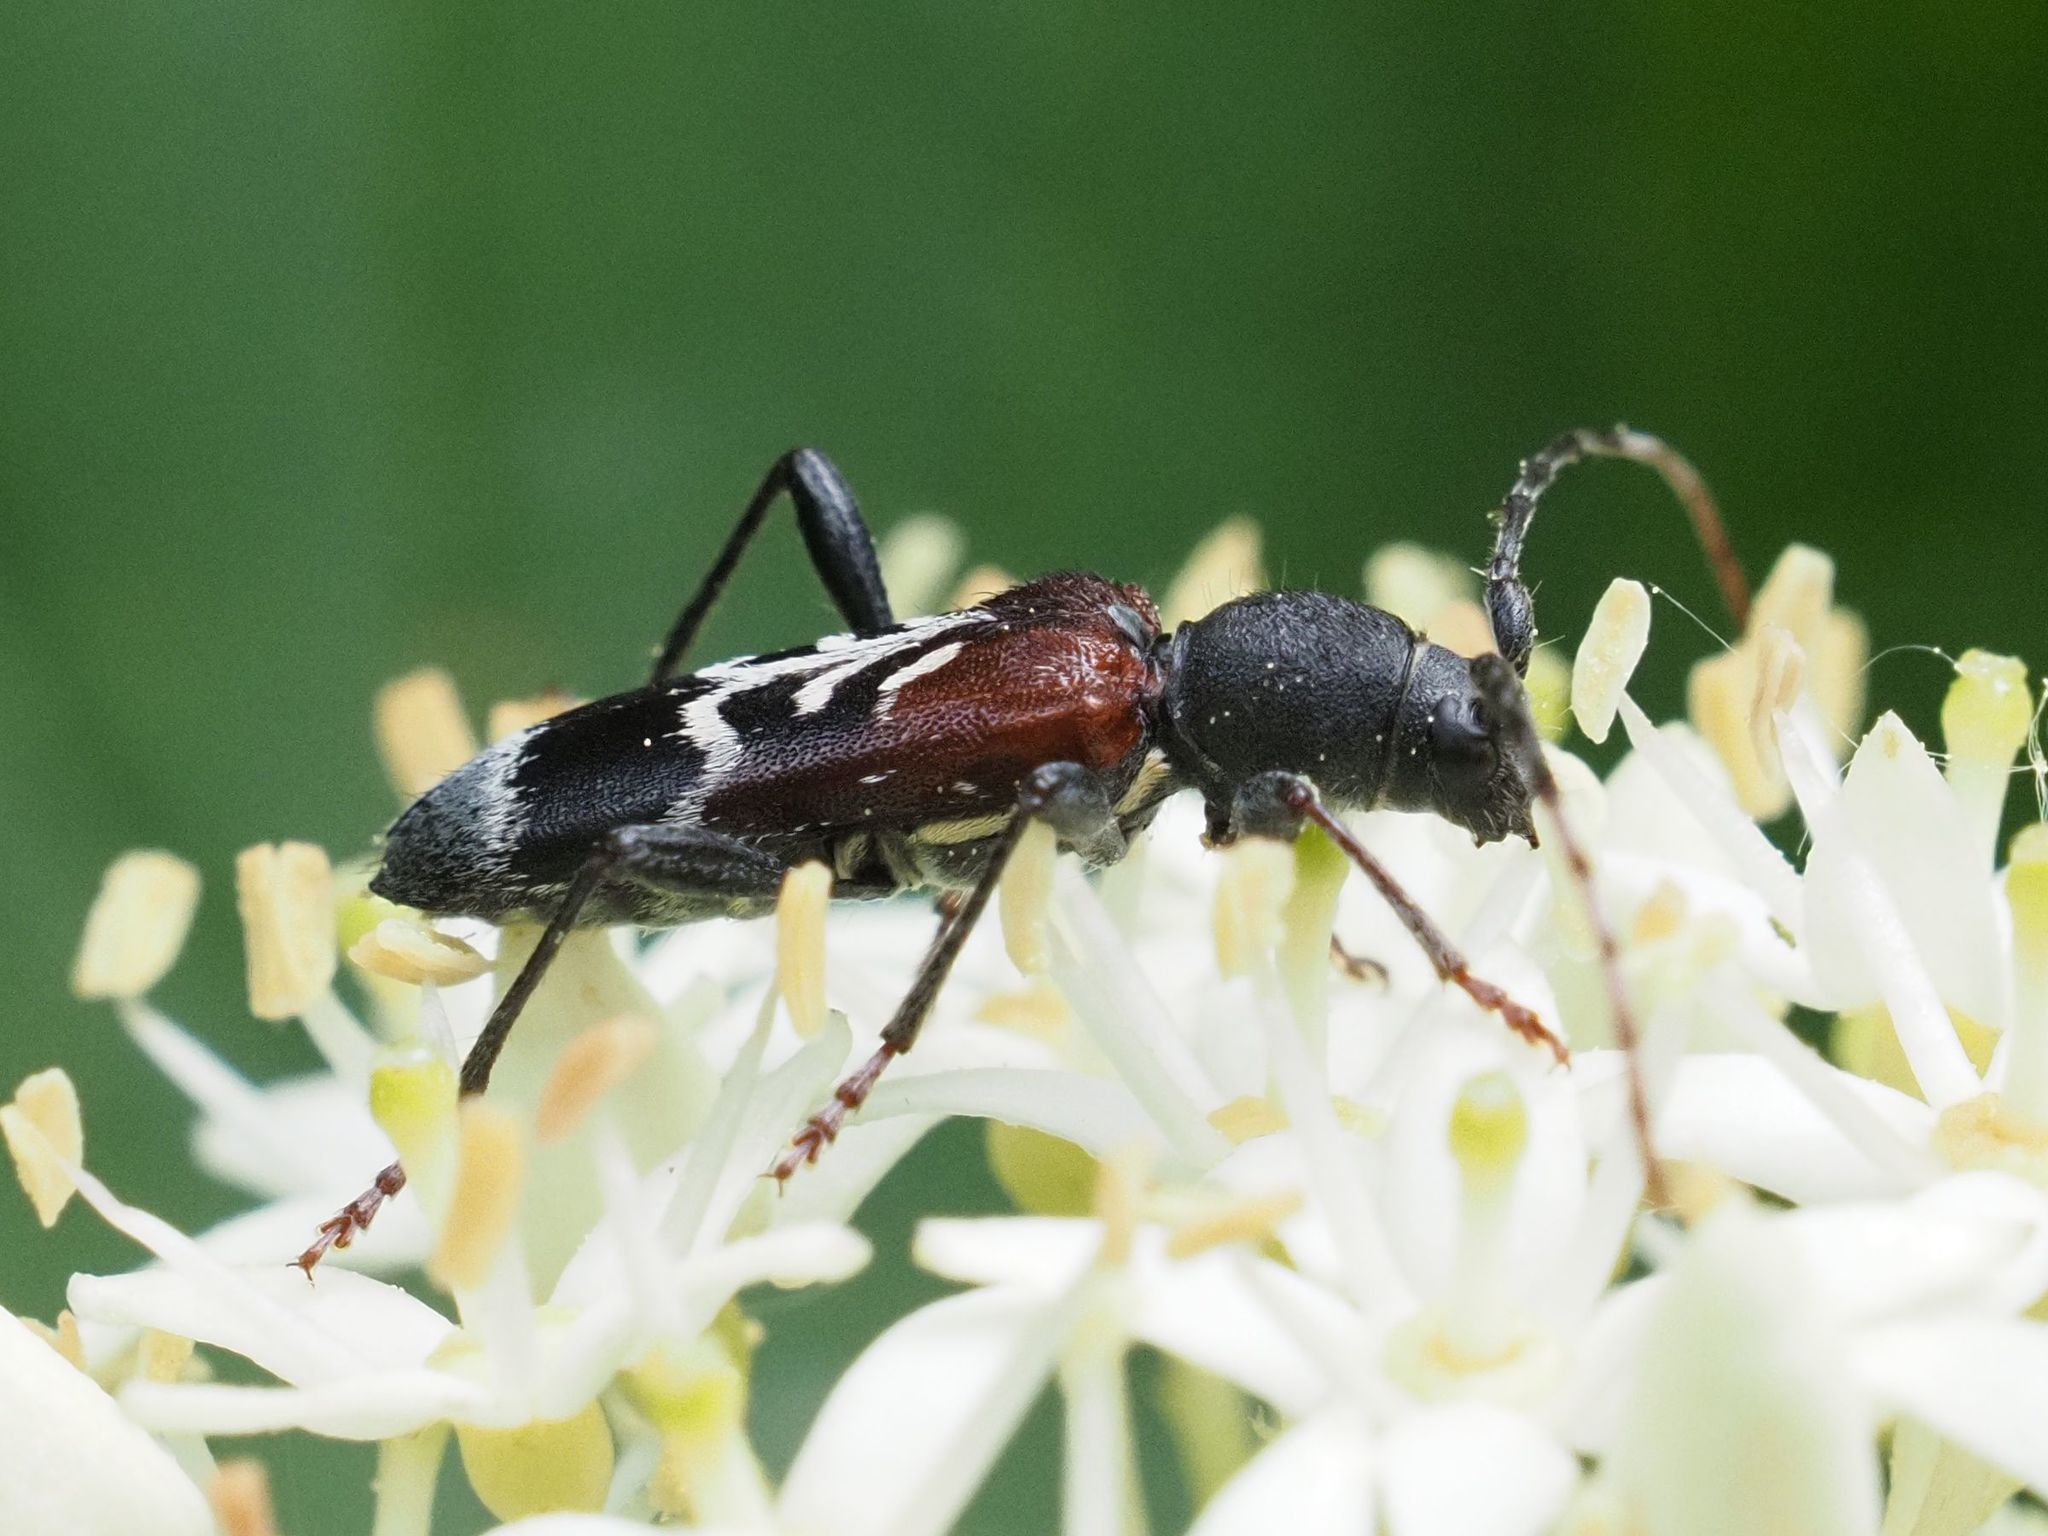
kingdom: Animalia
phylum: Arthropoda
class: Insecta
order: Coleoptera
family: Cerambycidae
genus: Anaglyptus
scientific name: Anaglyptus mysticus
